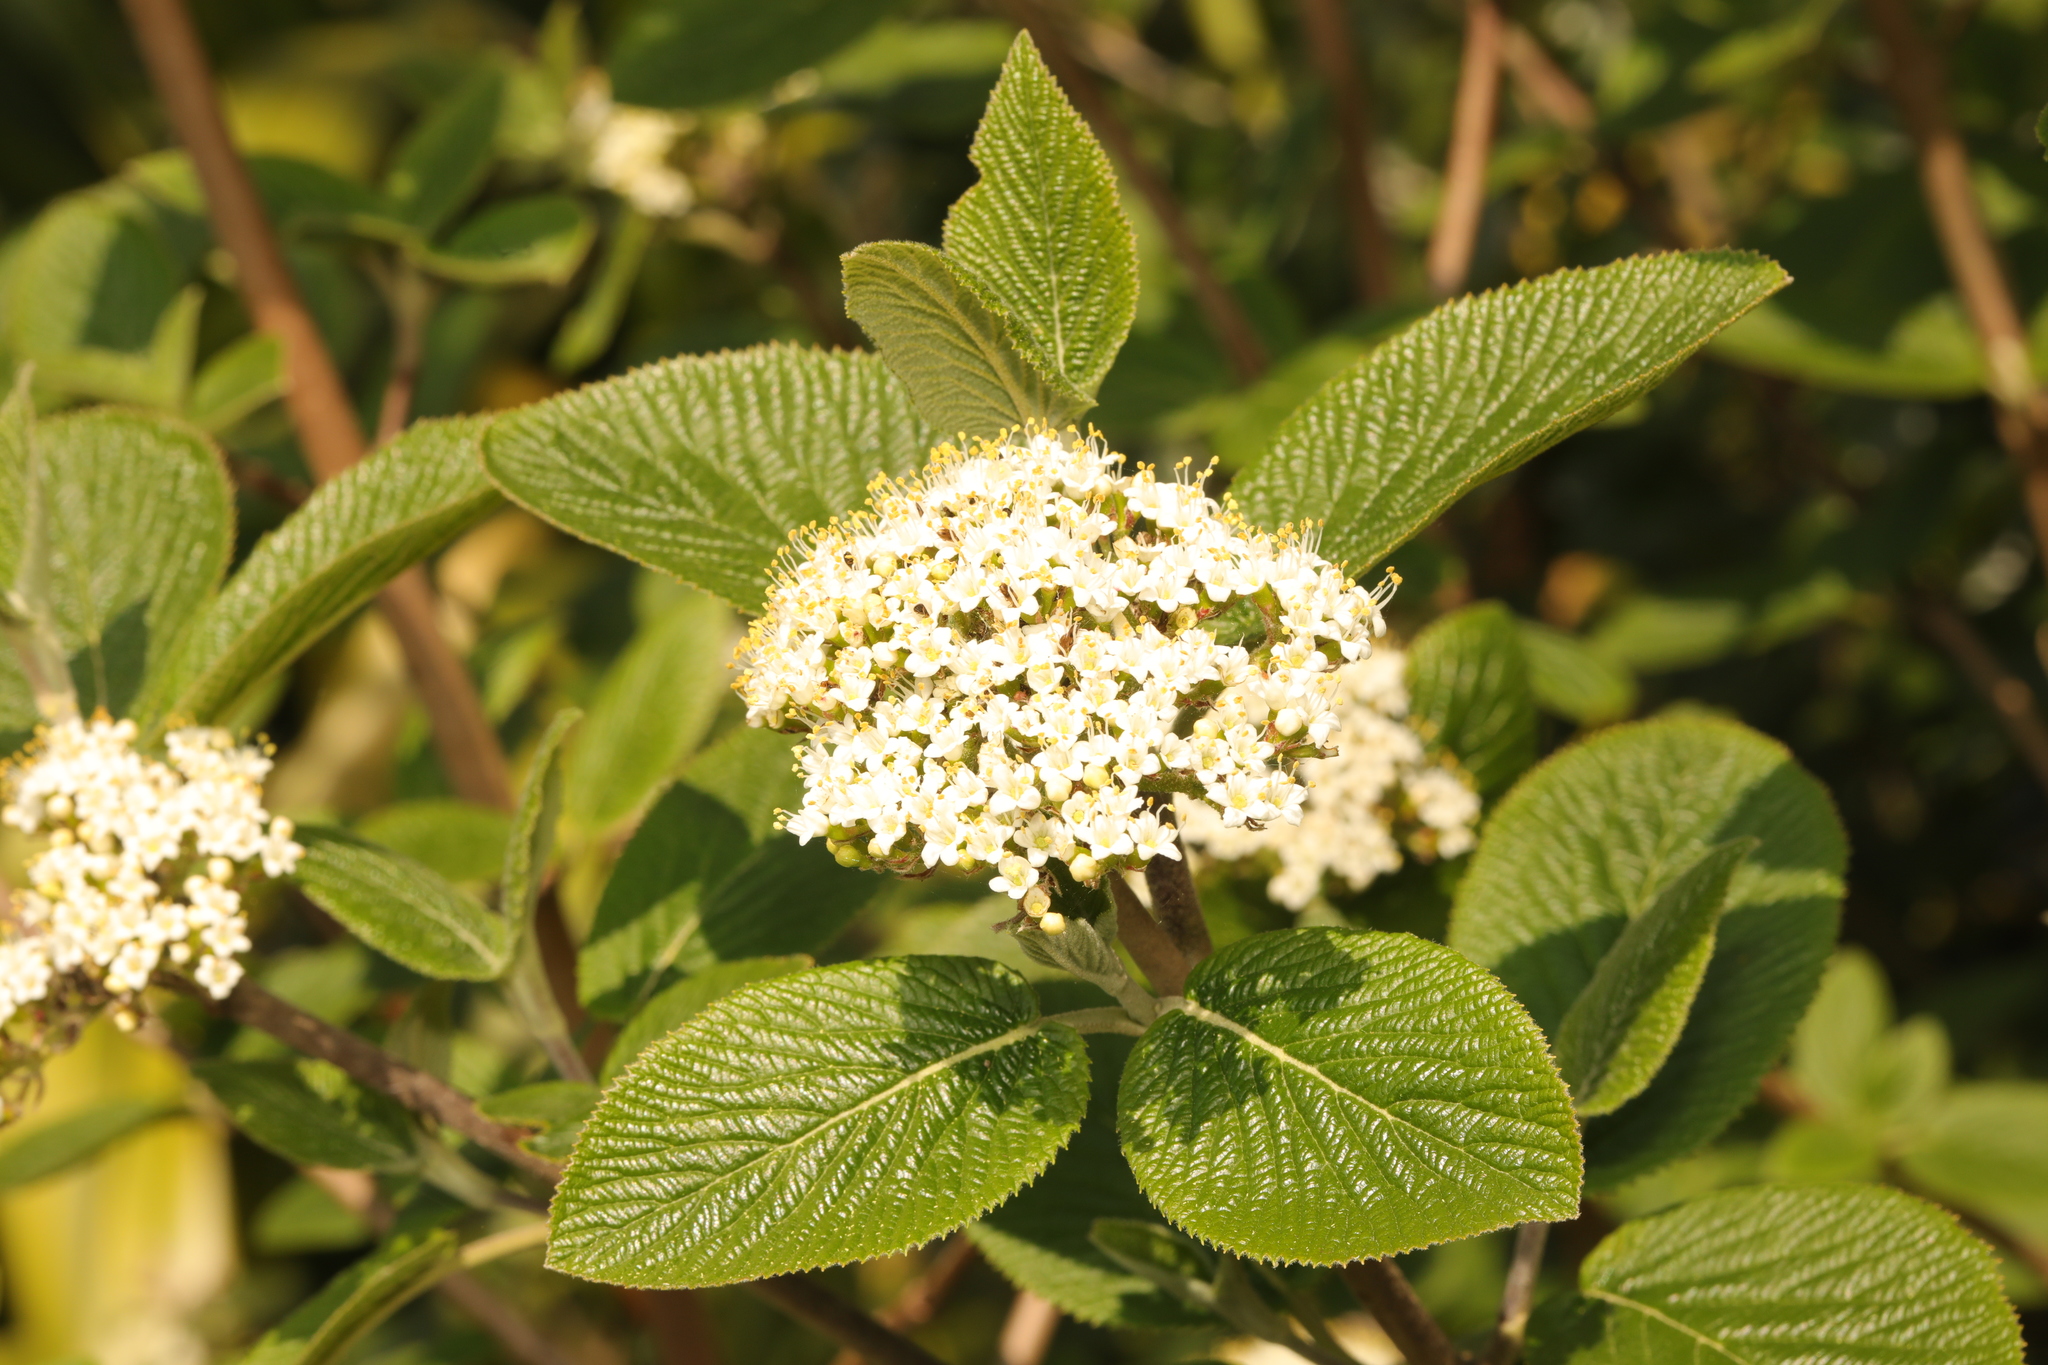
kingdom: Plantae
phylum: Tracheophyta
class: Magnoliopsida
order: Dipsacales
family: Viburnaceae
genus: Viburnum
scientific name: Viburnum lantana
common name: Wayfaring tree
